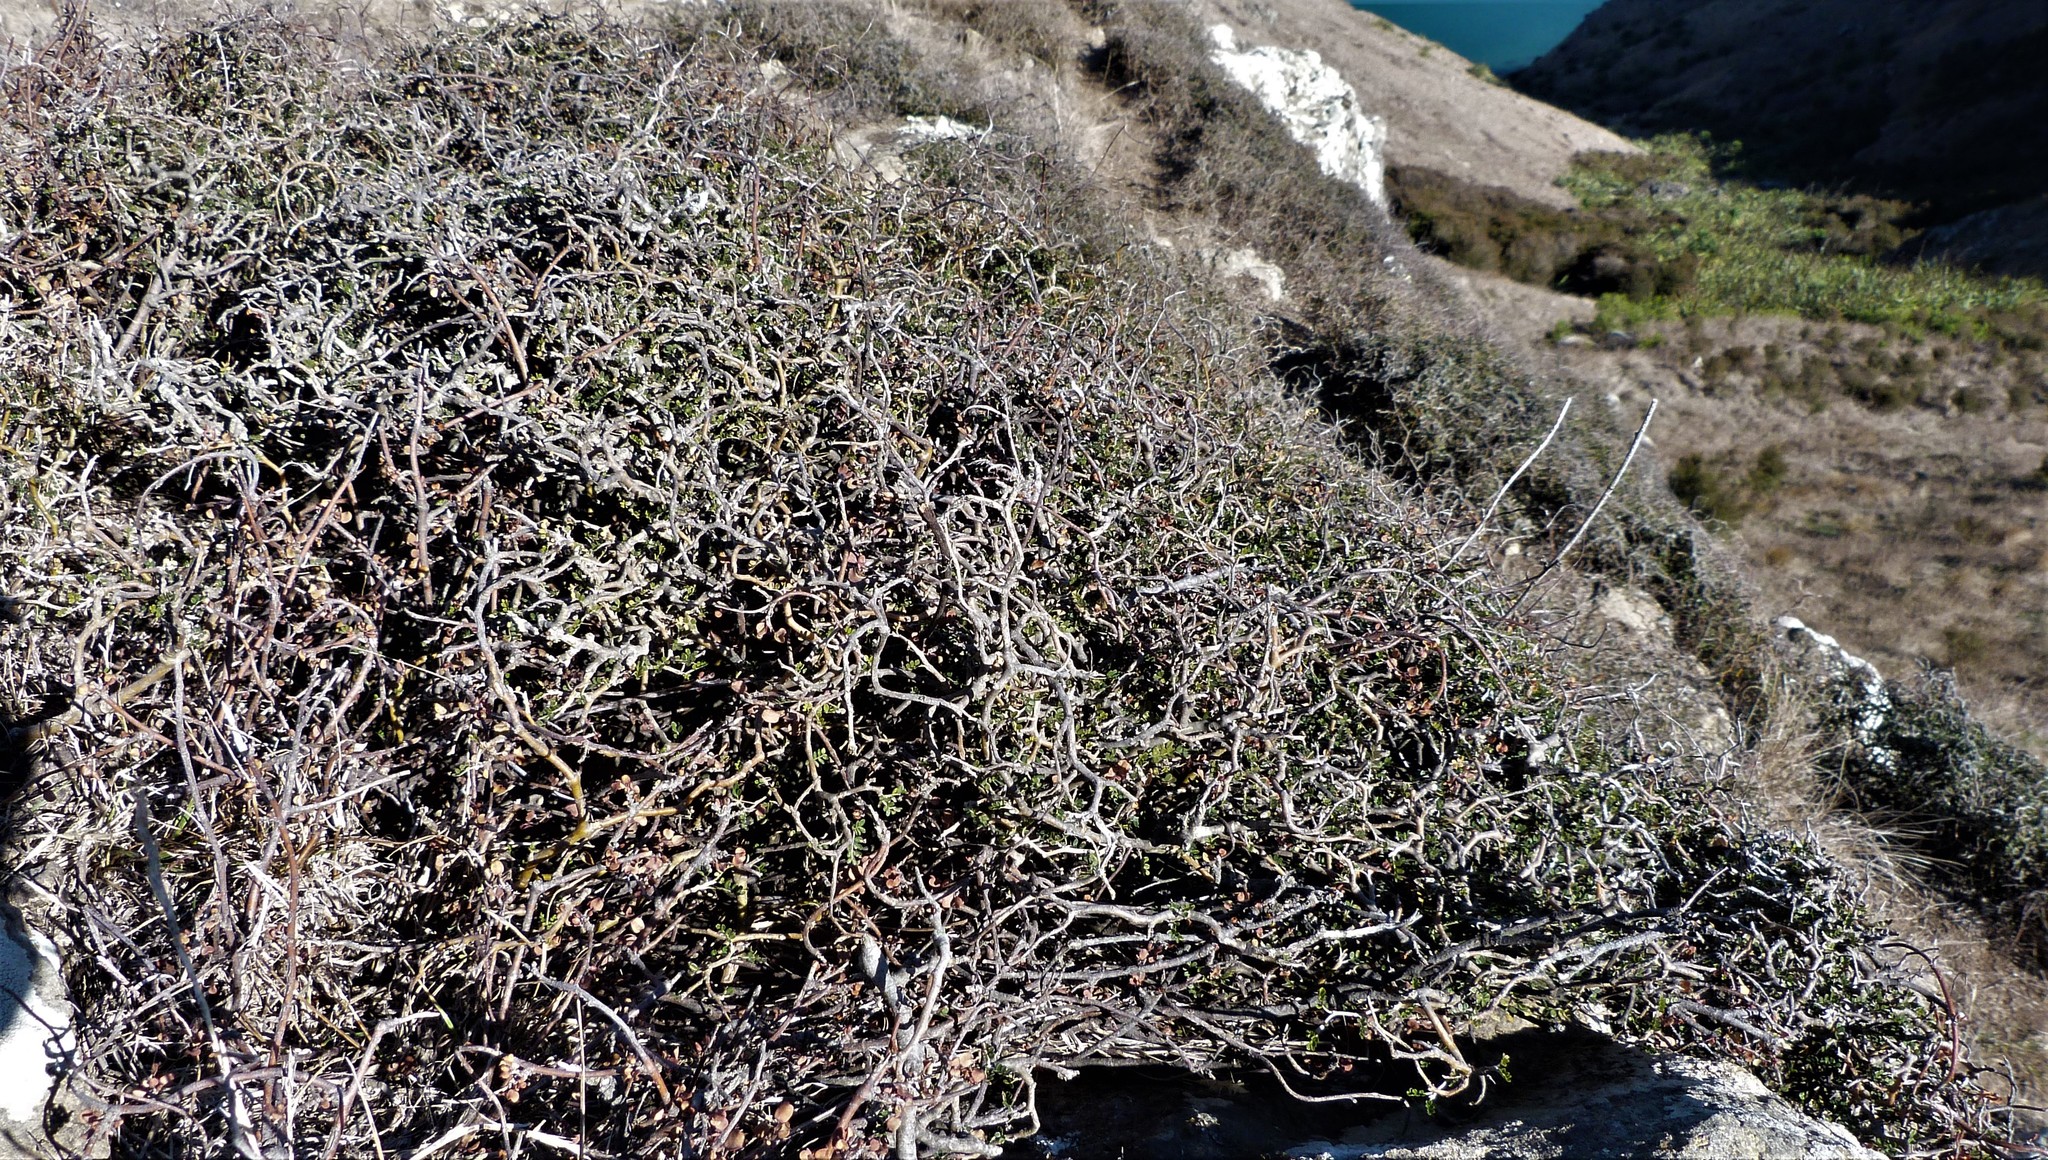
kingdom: Plantae
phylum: Tracheophyta
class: Magnoliopsida
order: Fabales
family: Fabaceae
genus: Sophora
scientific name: Sophora prostrata
